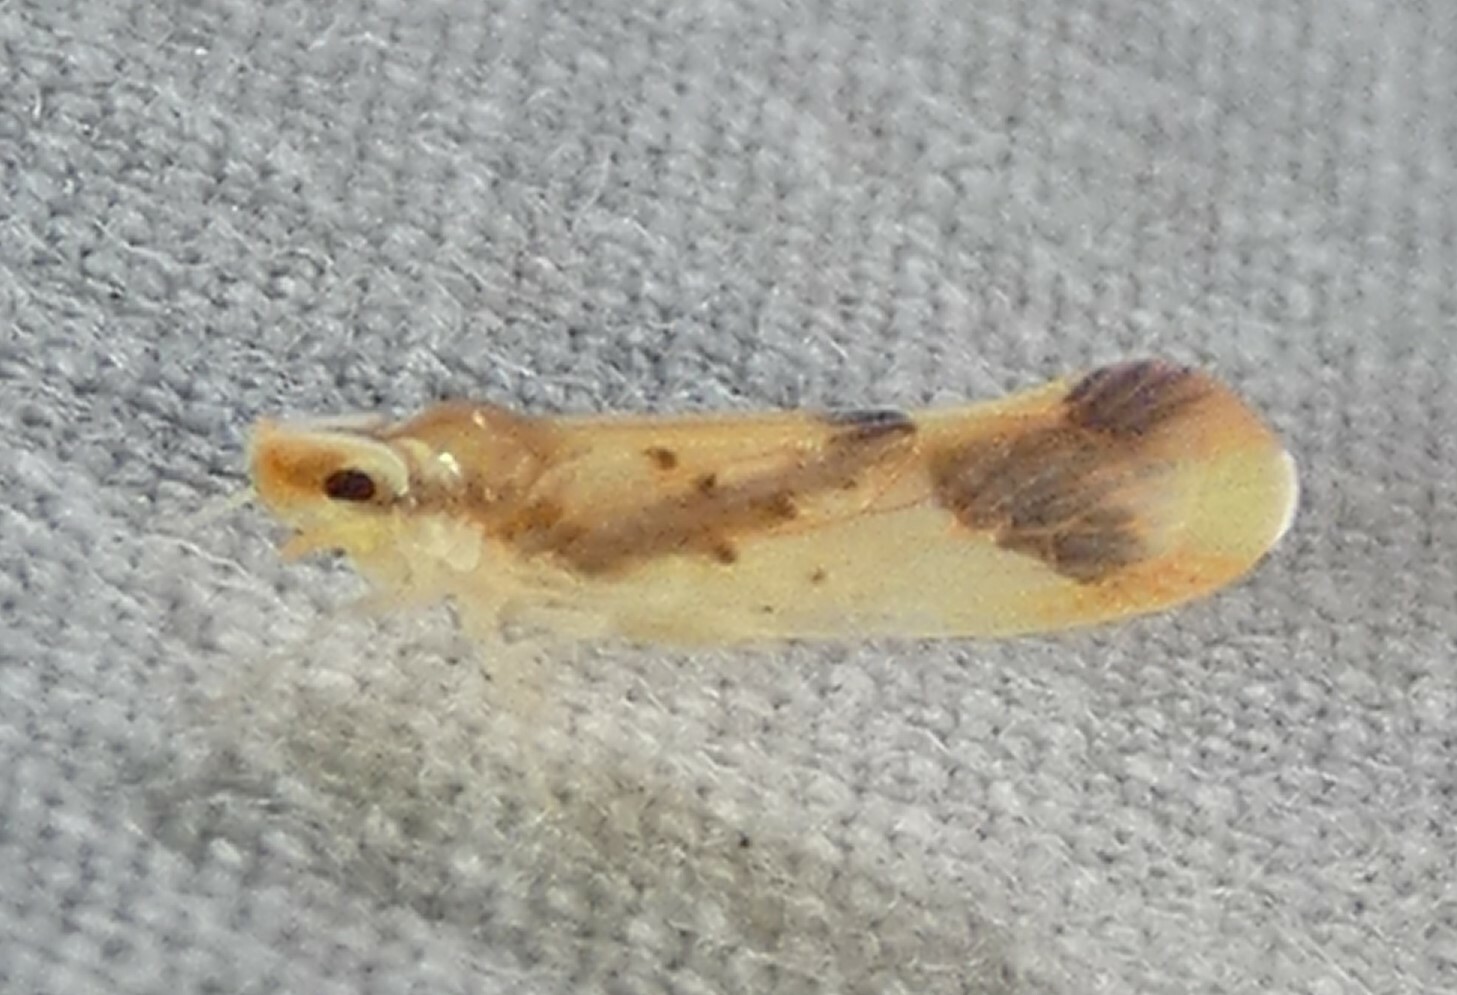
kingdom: Animalia
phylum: Arthropoda
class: Insecta
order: Hemiptera
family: Derbidae
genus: Otiocerus
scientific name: Otiocerus reaumurii
